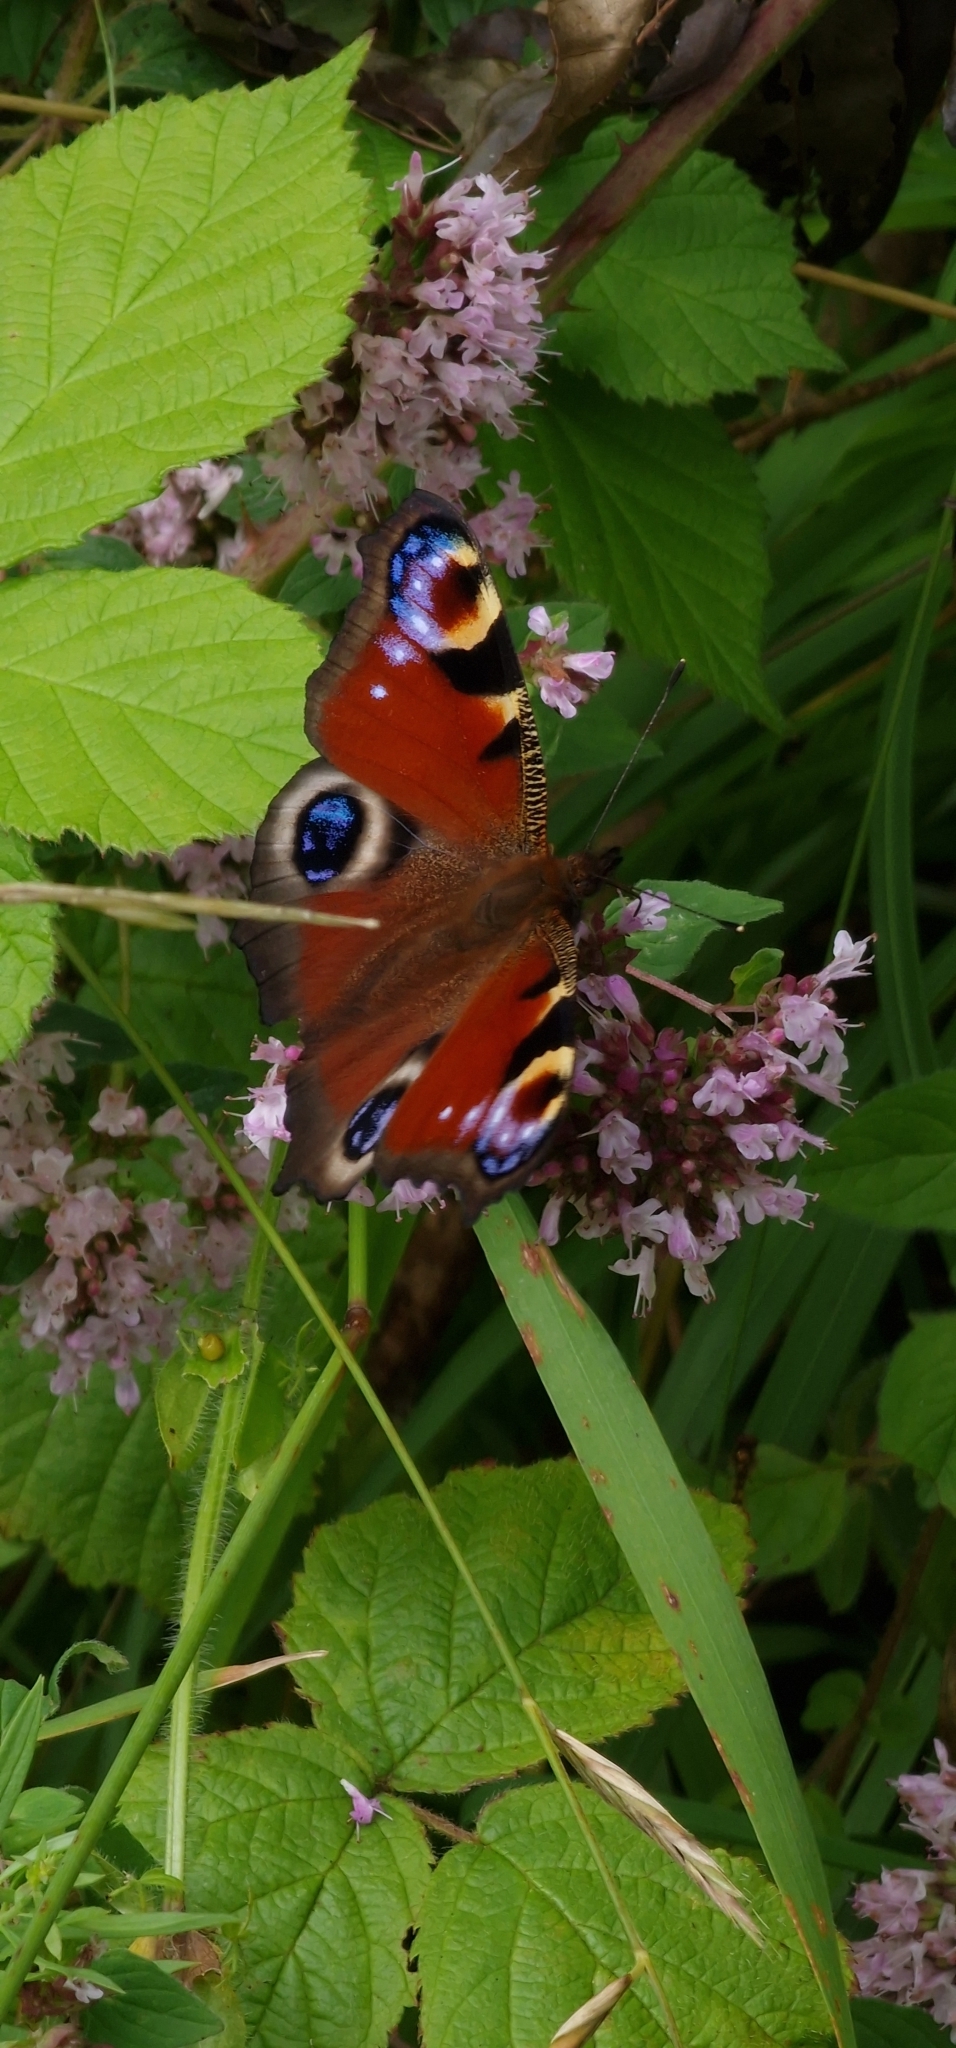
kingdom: Animalia
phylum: Arthropoda
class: Insecta
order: Lepidoptera
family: Nymphalidae
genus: Aglais
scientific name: Aglais io
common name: Peacock
